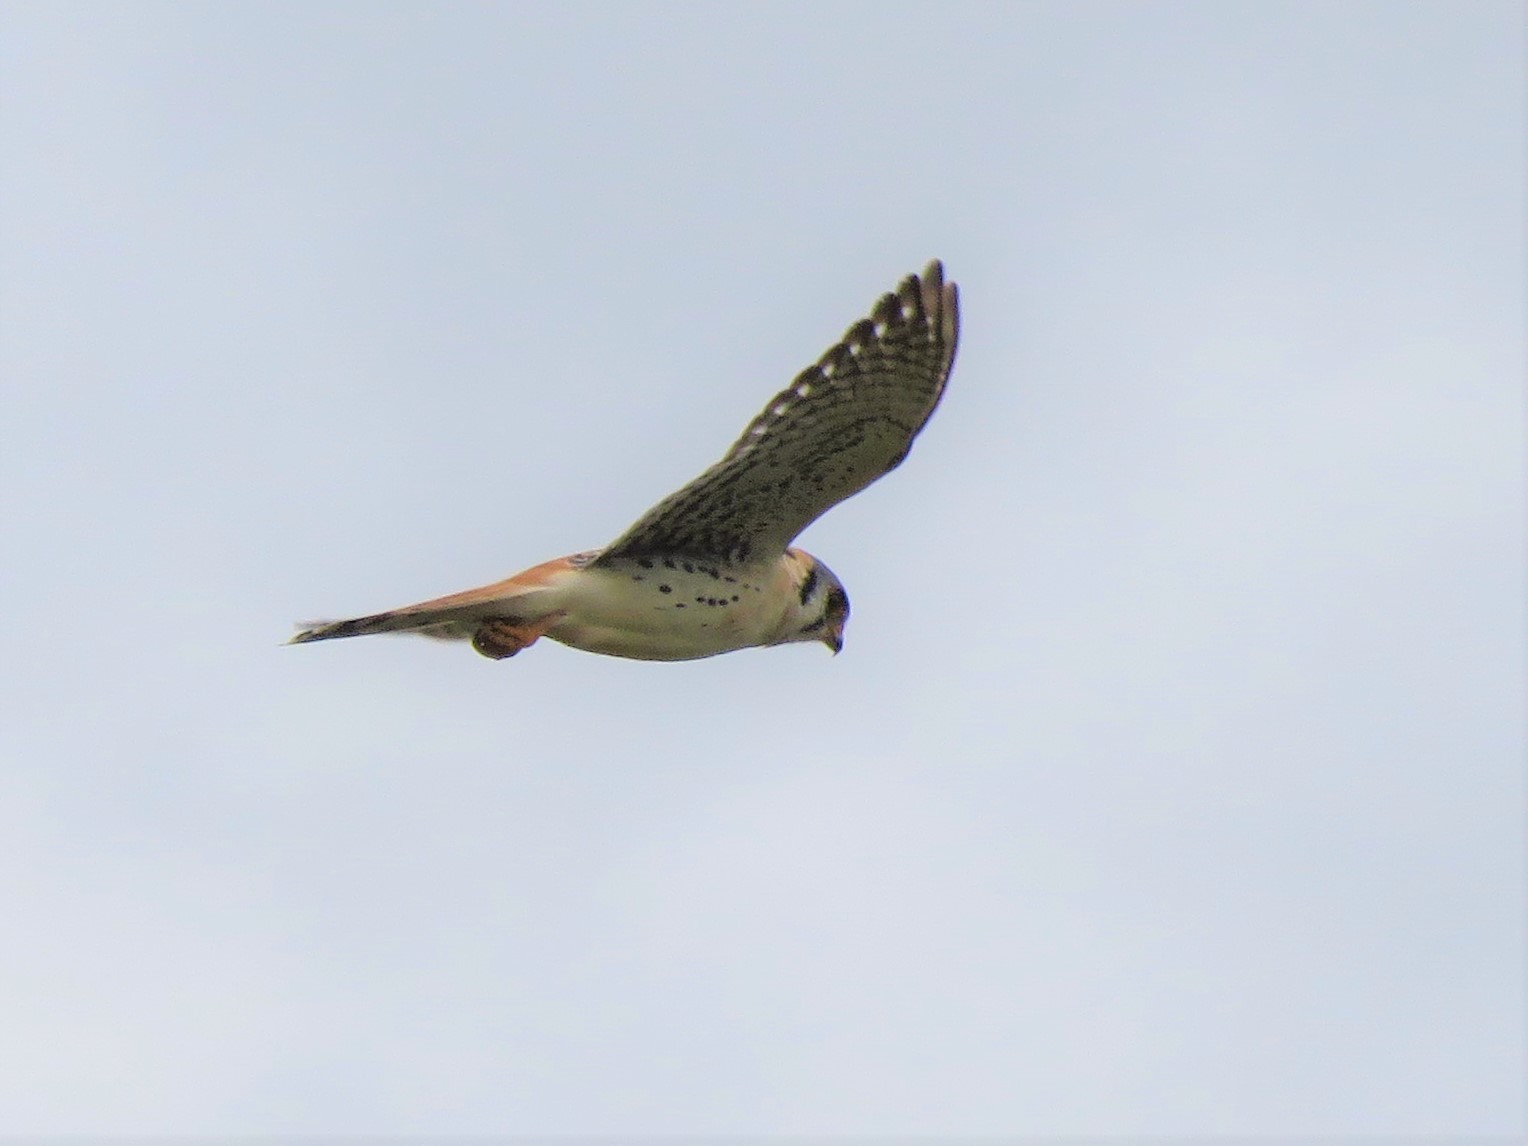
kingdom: Animalia
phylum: Chordata
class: Aves
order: Falconiformes
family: Falconidae
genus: Falco
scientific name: Falco sparverius
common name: American kestrel
